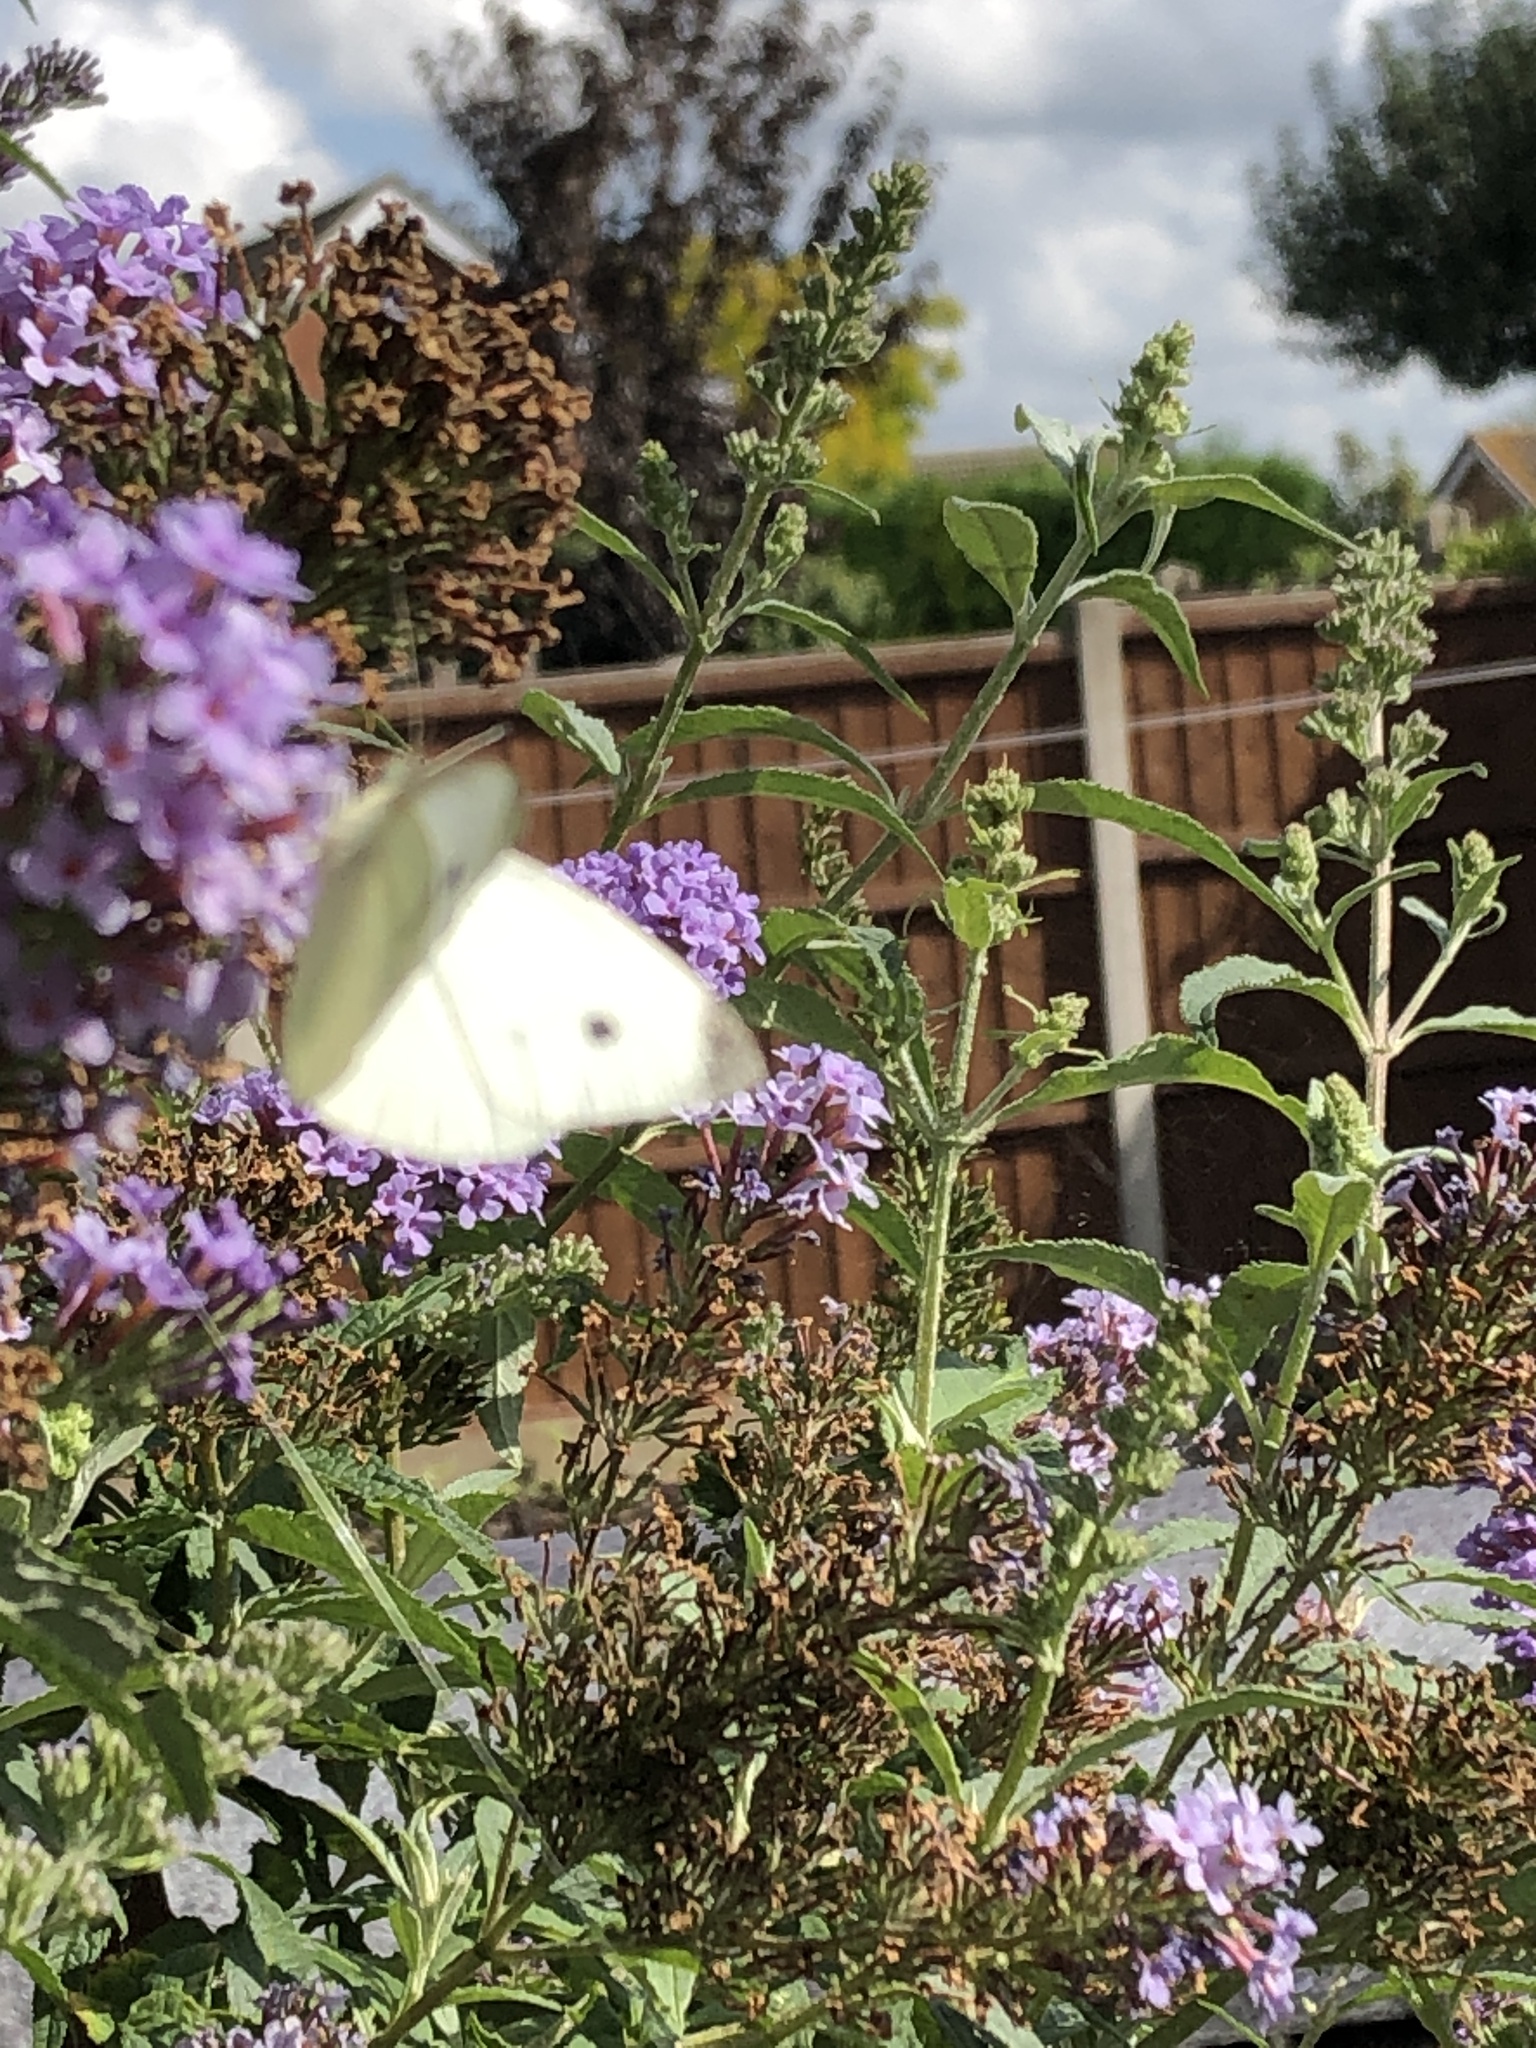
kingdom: Animalia
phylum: Arthropoda
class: Insecta
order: Lepidoptera
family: Pieridae
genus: Pieris
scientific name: Pieris rapae
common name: Small white
